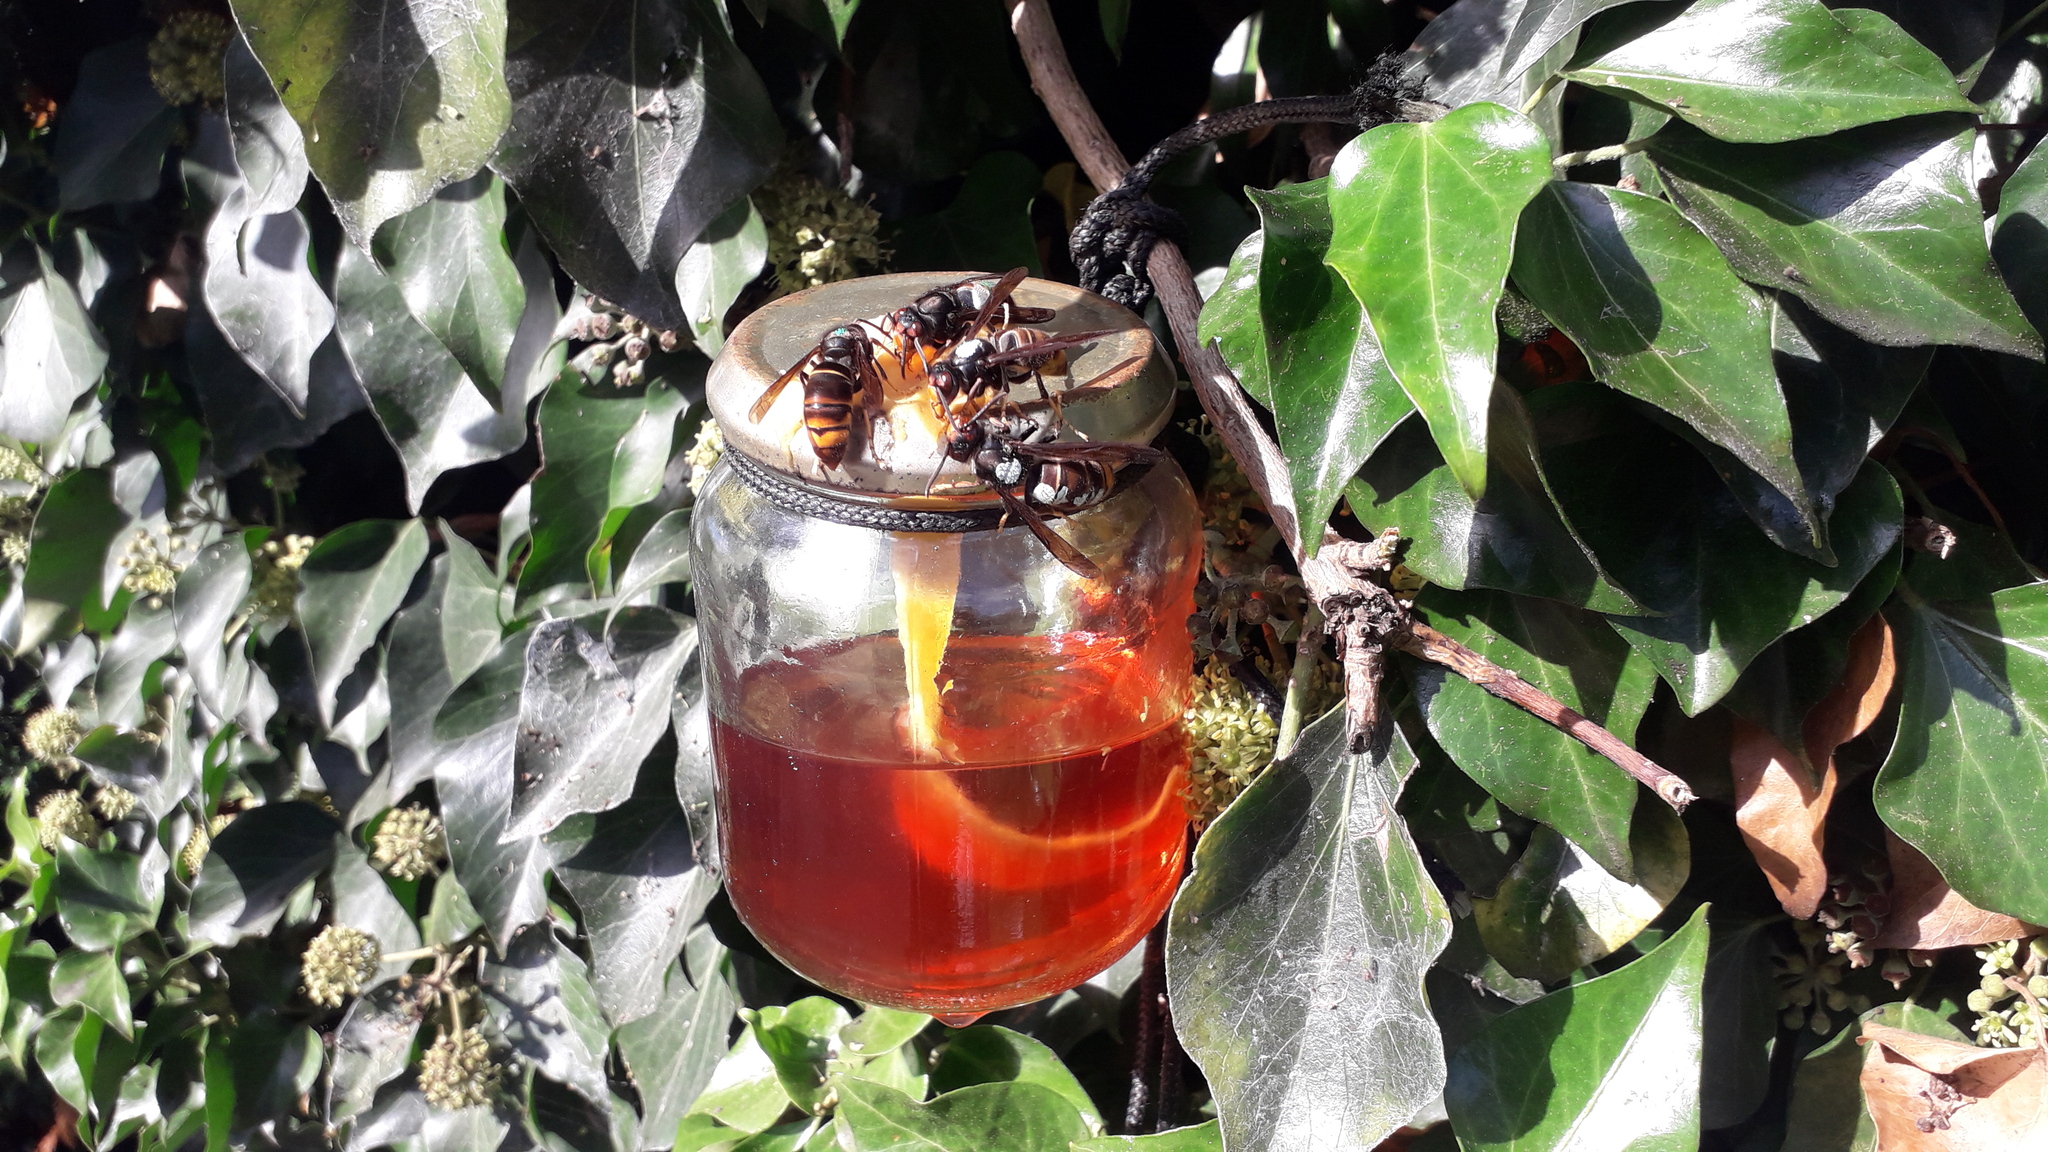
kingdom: Animalia
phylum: Arthropoda
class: Insecta
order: Hymenoptera
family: Vespidae
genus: Vespa
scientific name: Vespa velutina
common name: Asian hornet
